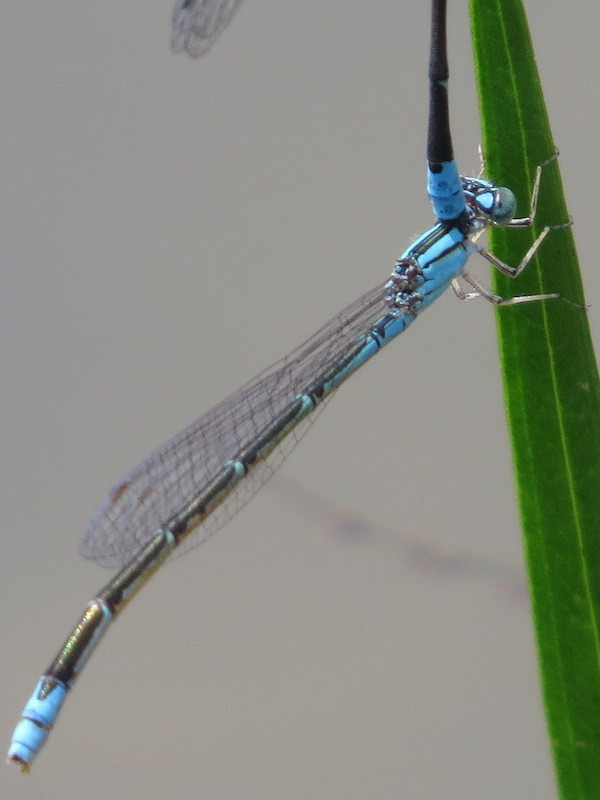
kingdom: Animalia
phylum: Arthropoda
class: Insecta
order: Odonata
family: Coenagrionidae
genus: Enallagma
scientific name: Enallagma traviatum
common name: Slender bluet
